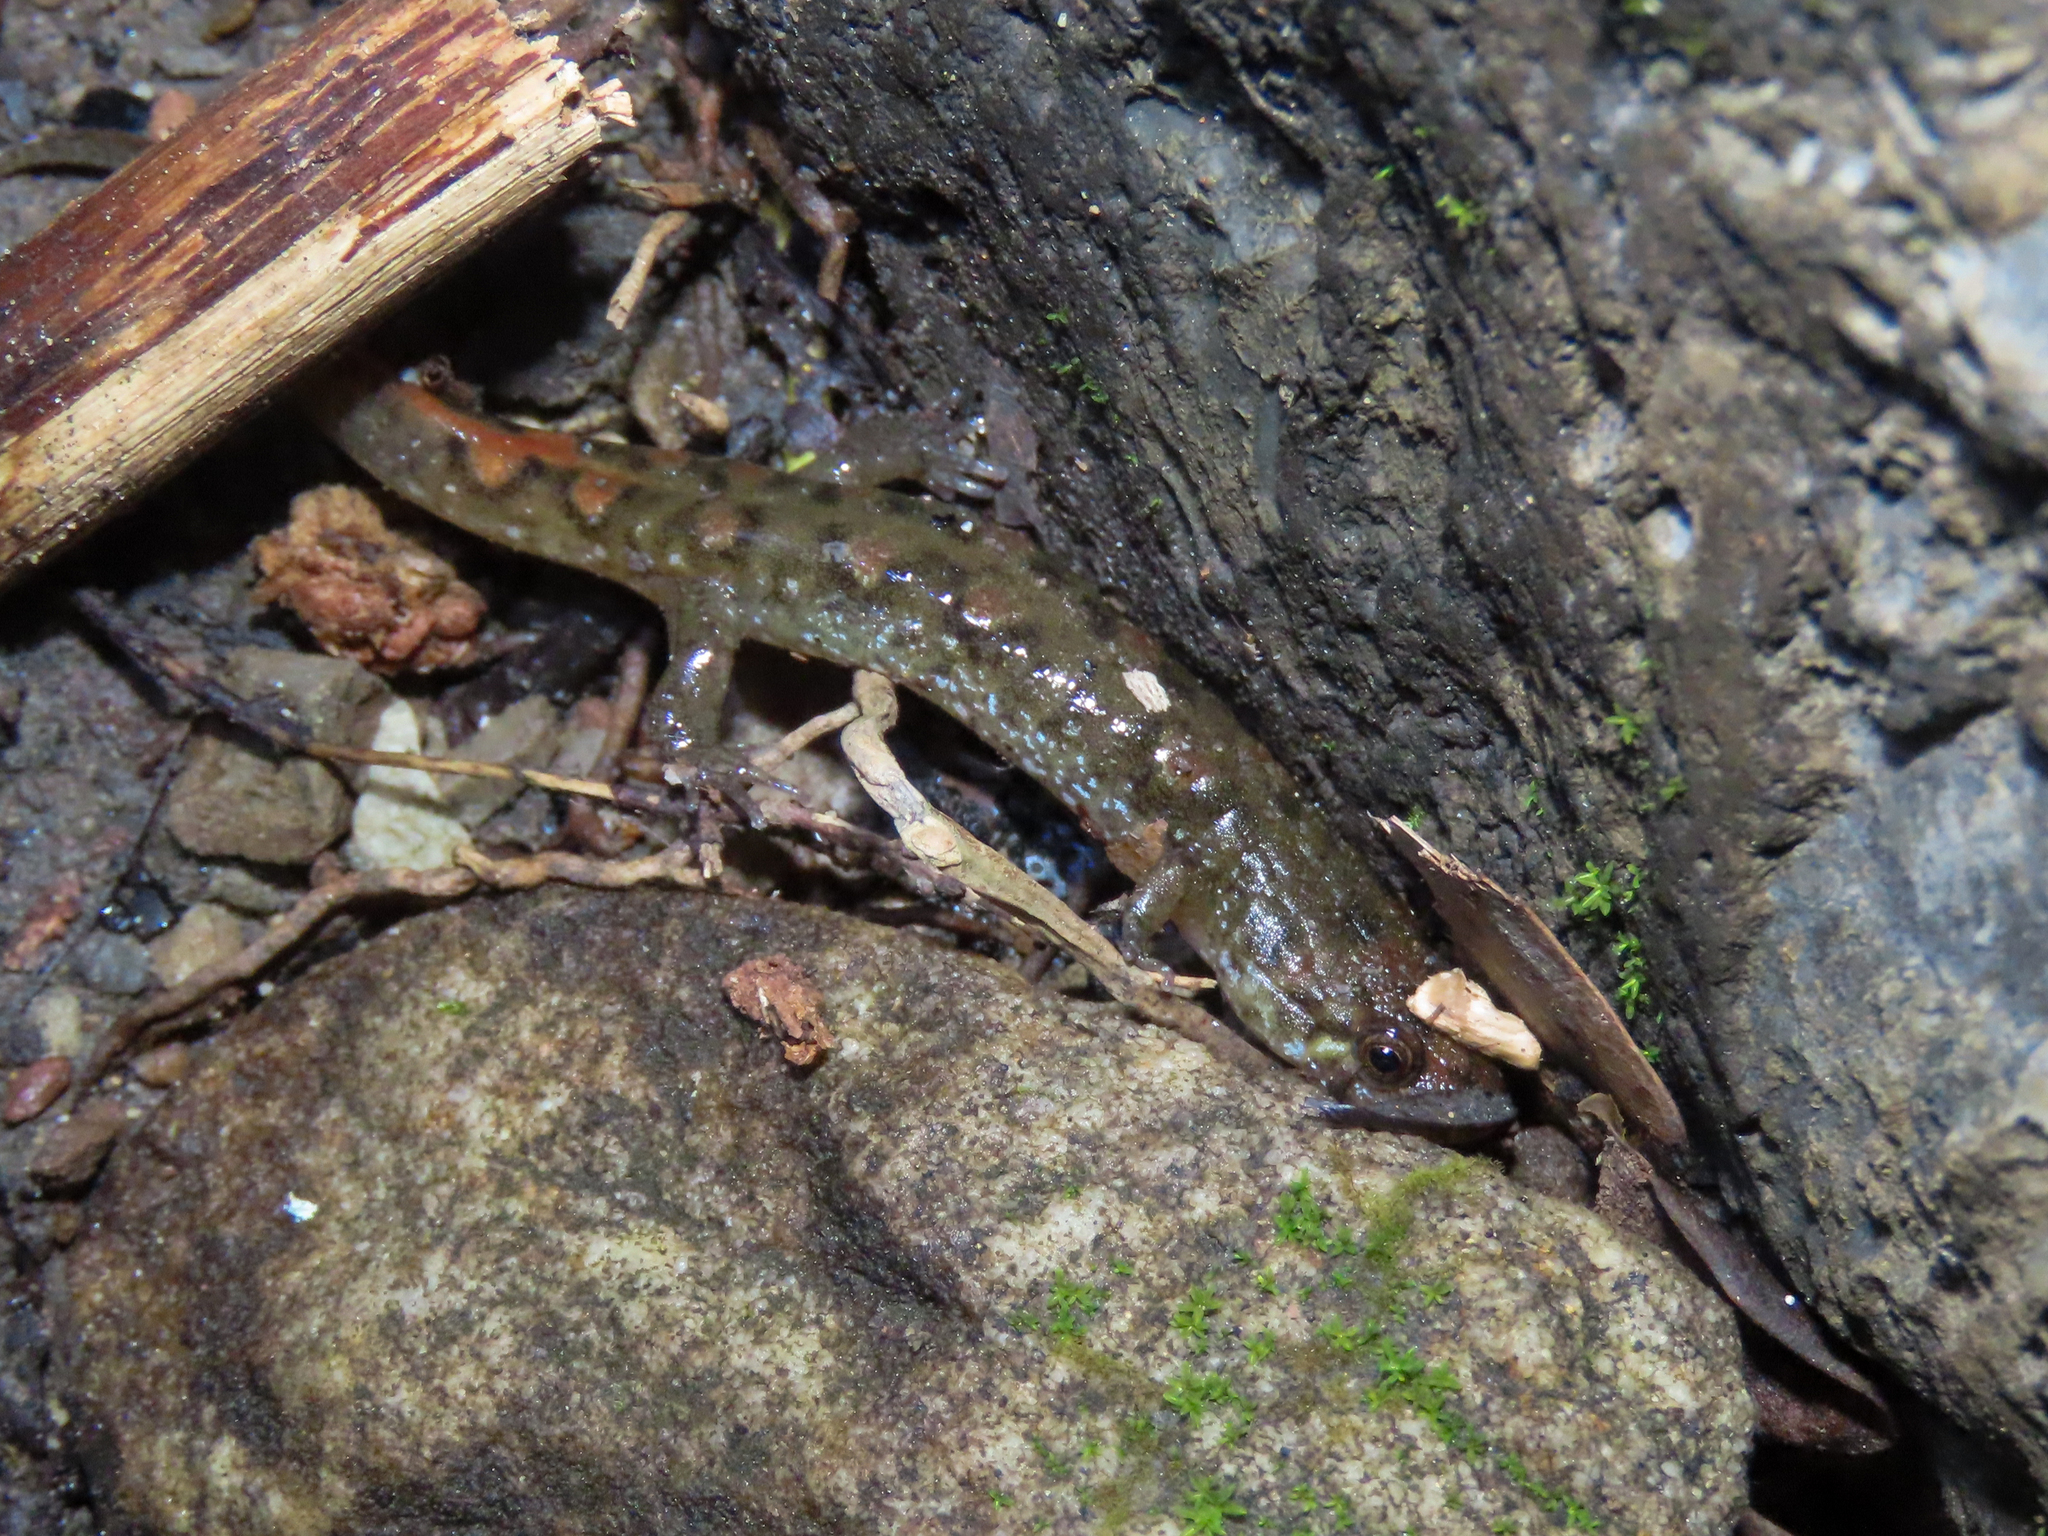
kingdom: Animalia
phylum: Chordata
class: Amphibia
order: Caudata
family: Plethodontidae
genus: Desmognathus
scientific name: Desmognathus monticola
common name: Seal salamander
